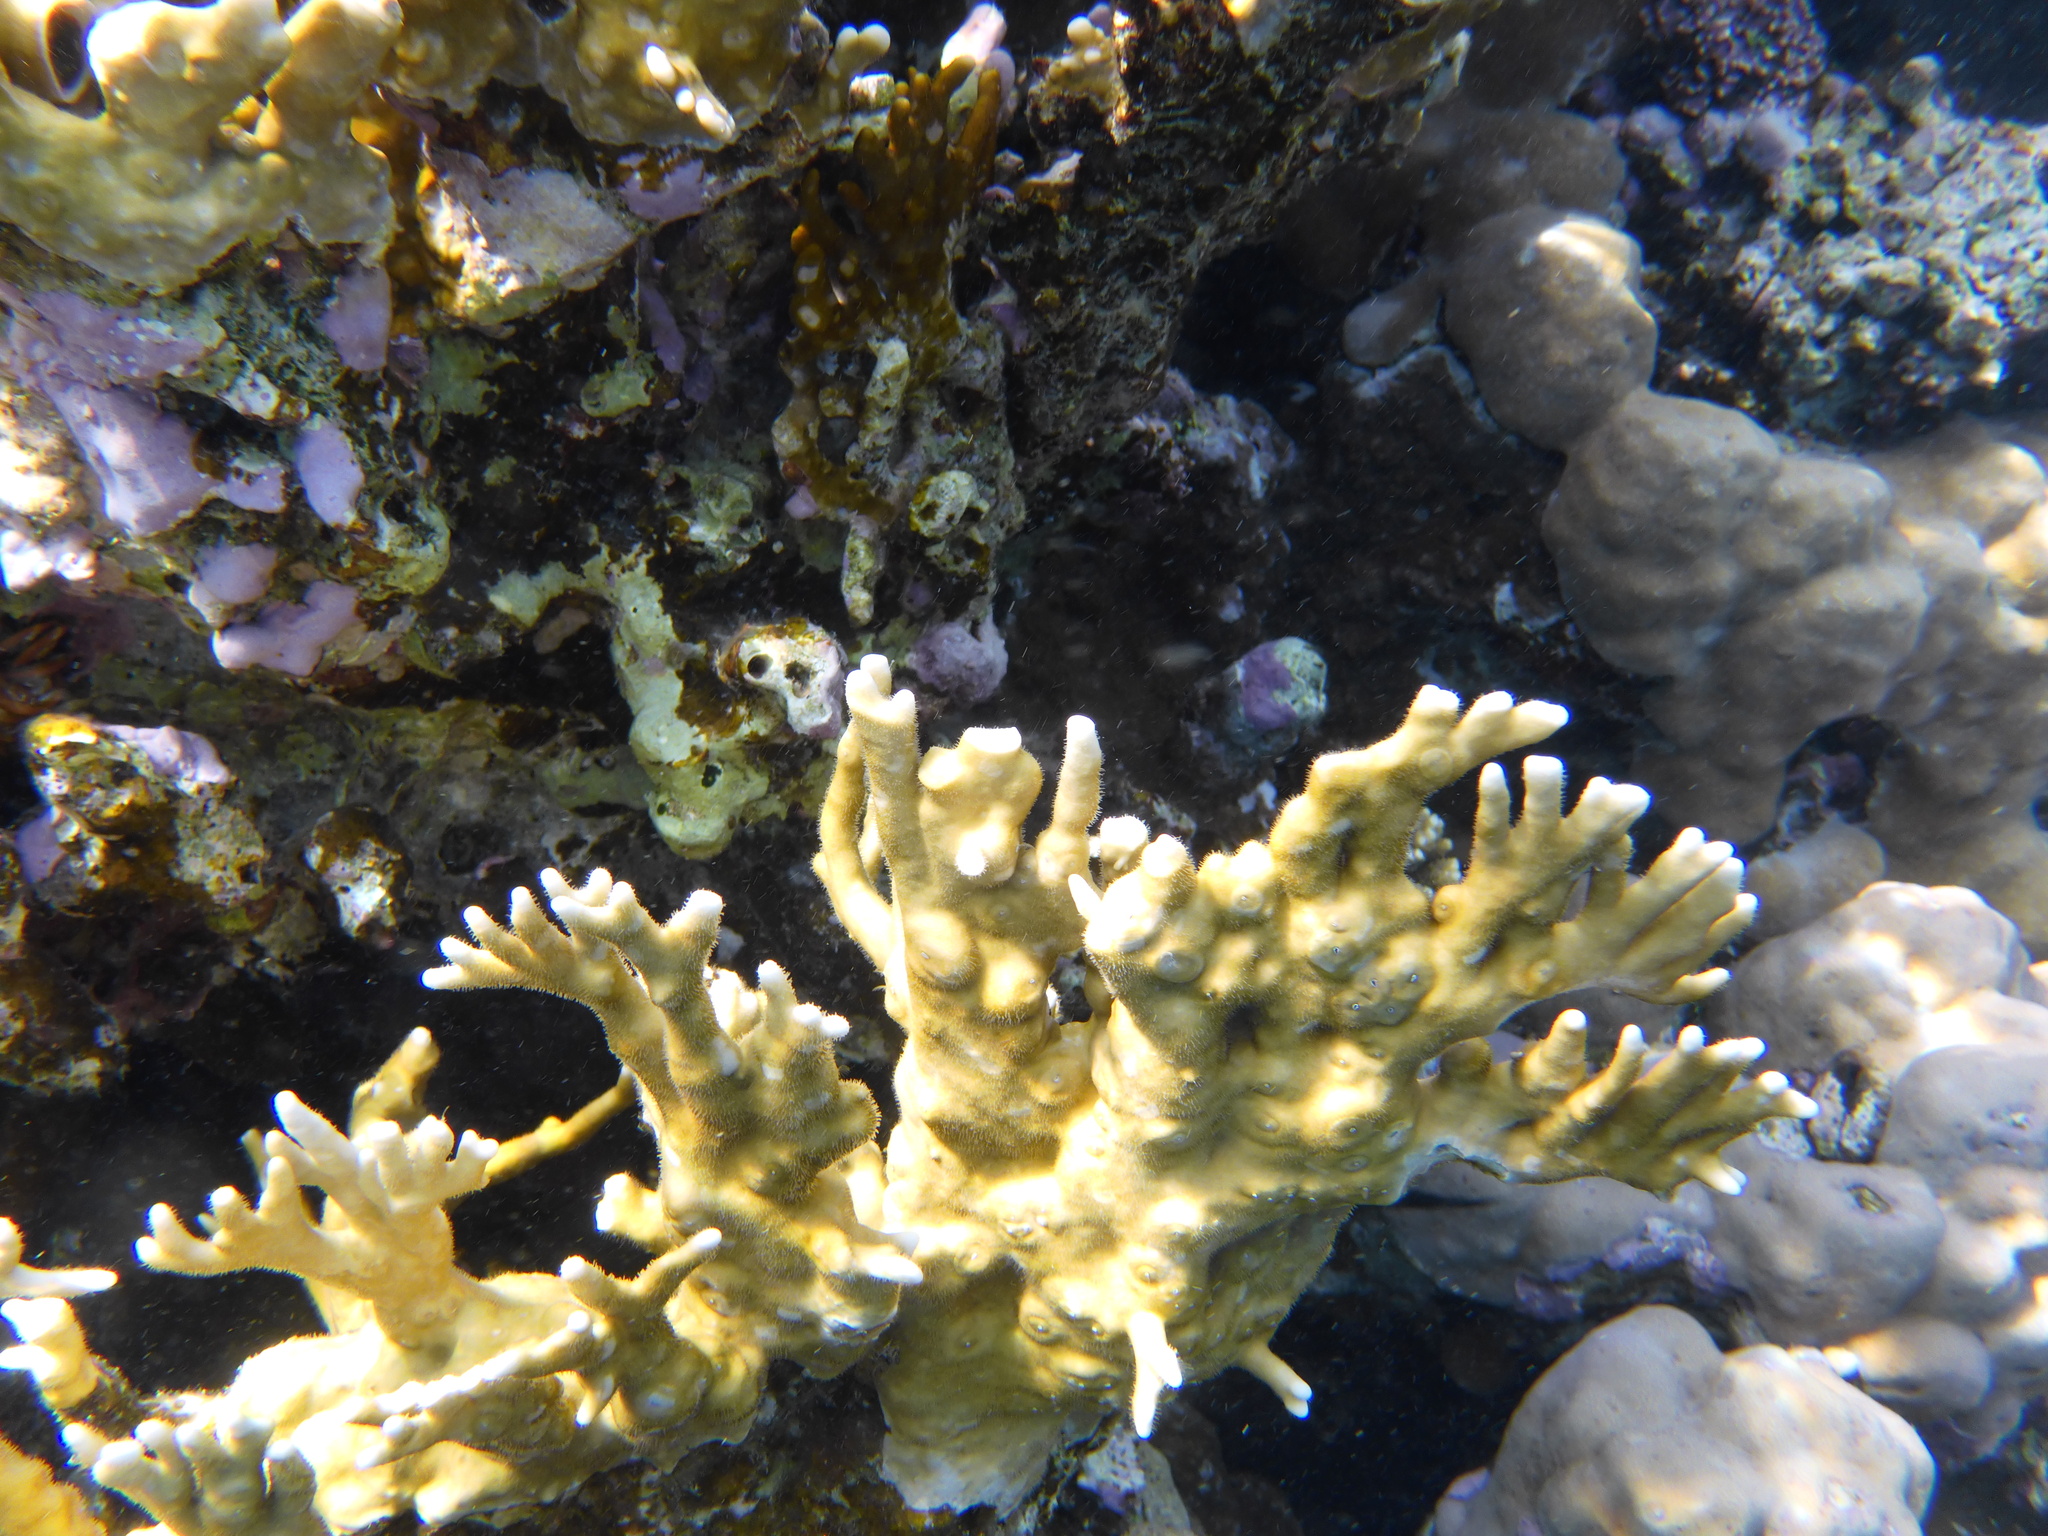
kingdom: Animalia
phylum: Cnidaria
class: Hydrozoa
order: Anthoathecata
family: Milleporidae
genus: Millepora
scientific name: Millepora dichotoma
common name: Ramified fire coral
